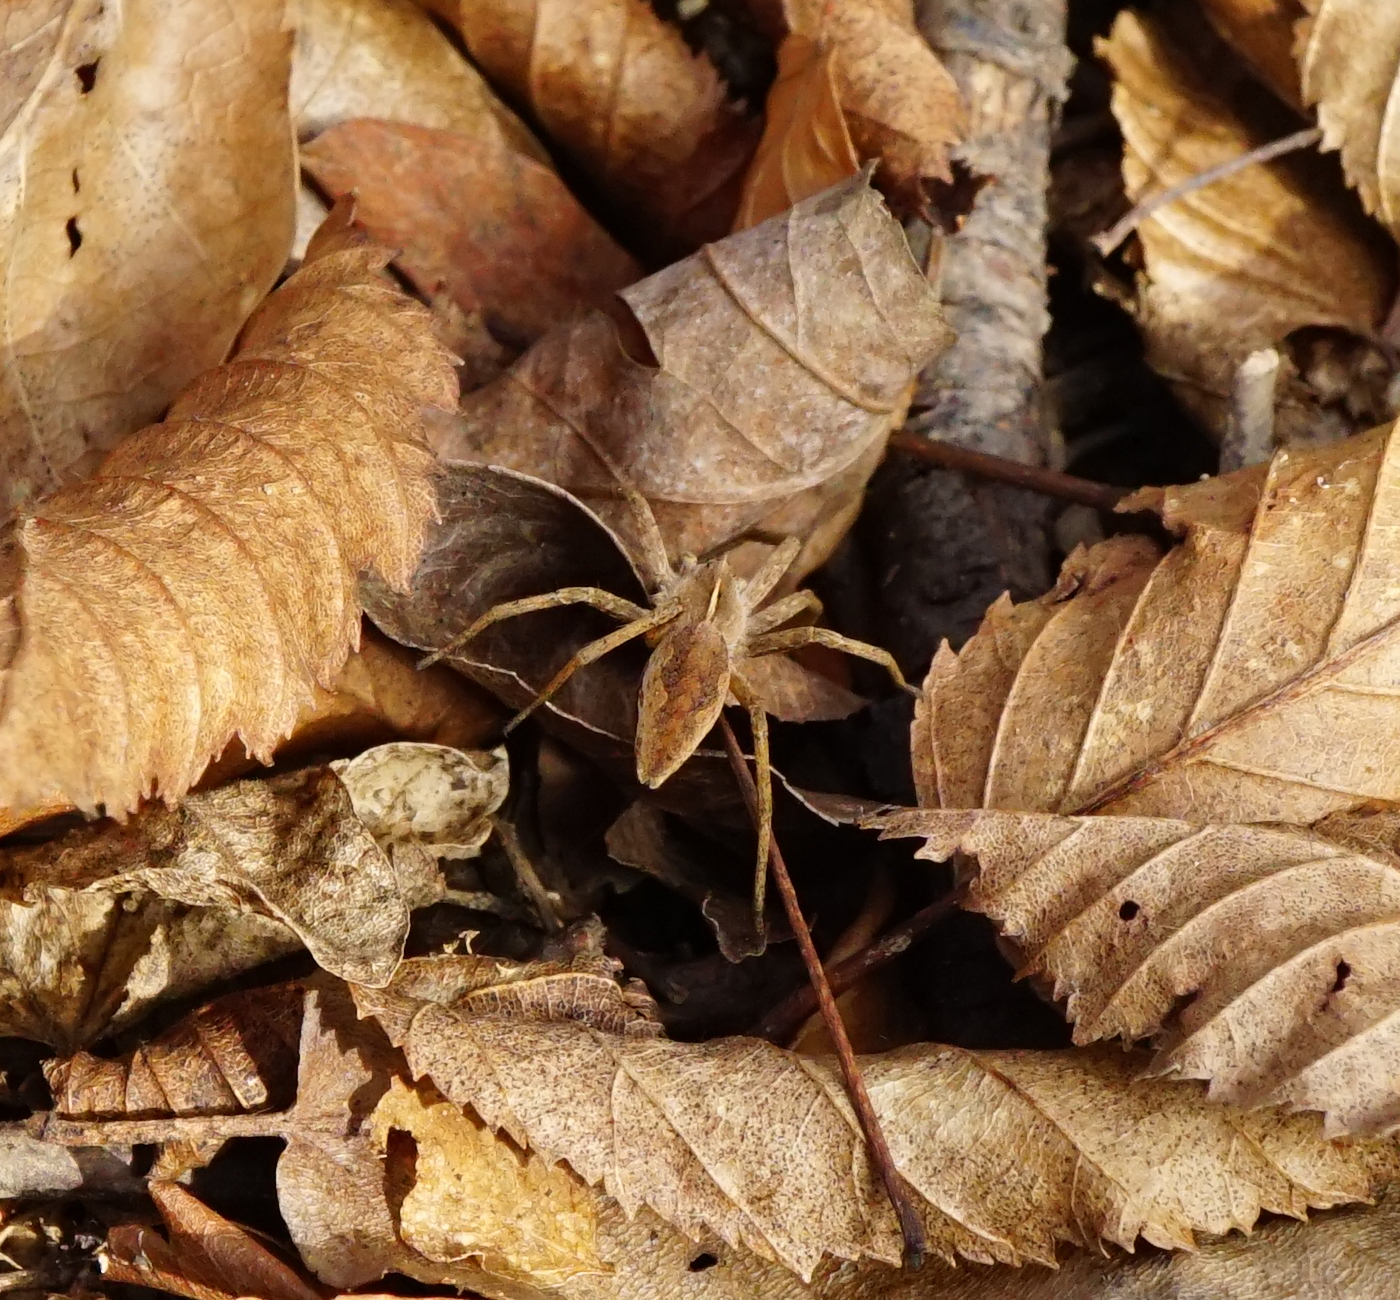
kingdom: Animalia
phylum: Arthropoda
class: Arachnida
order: Araneae
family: Pisauridae
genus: Pisaura
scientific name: Pisaura mirabilis
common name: Tent spider
